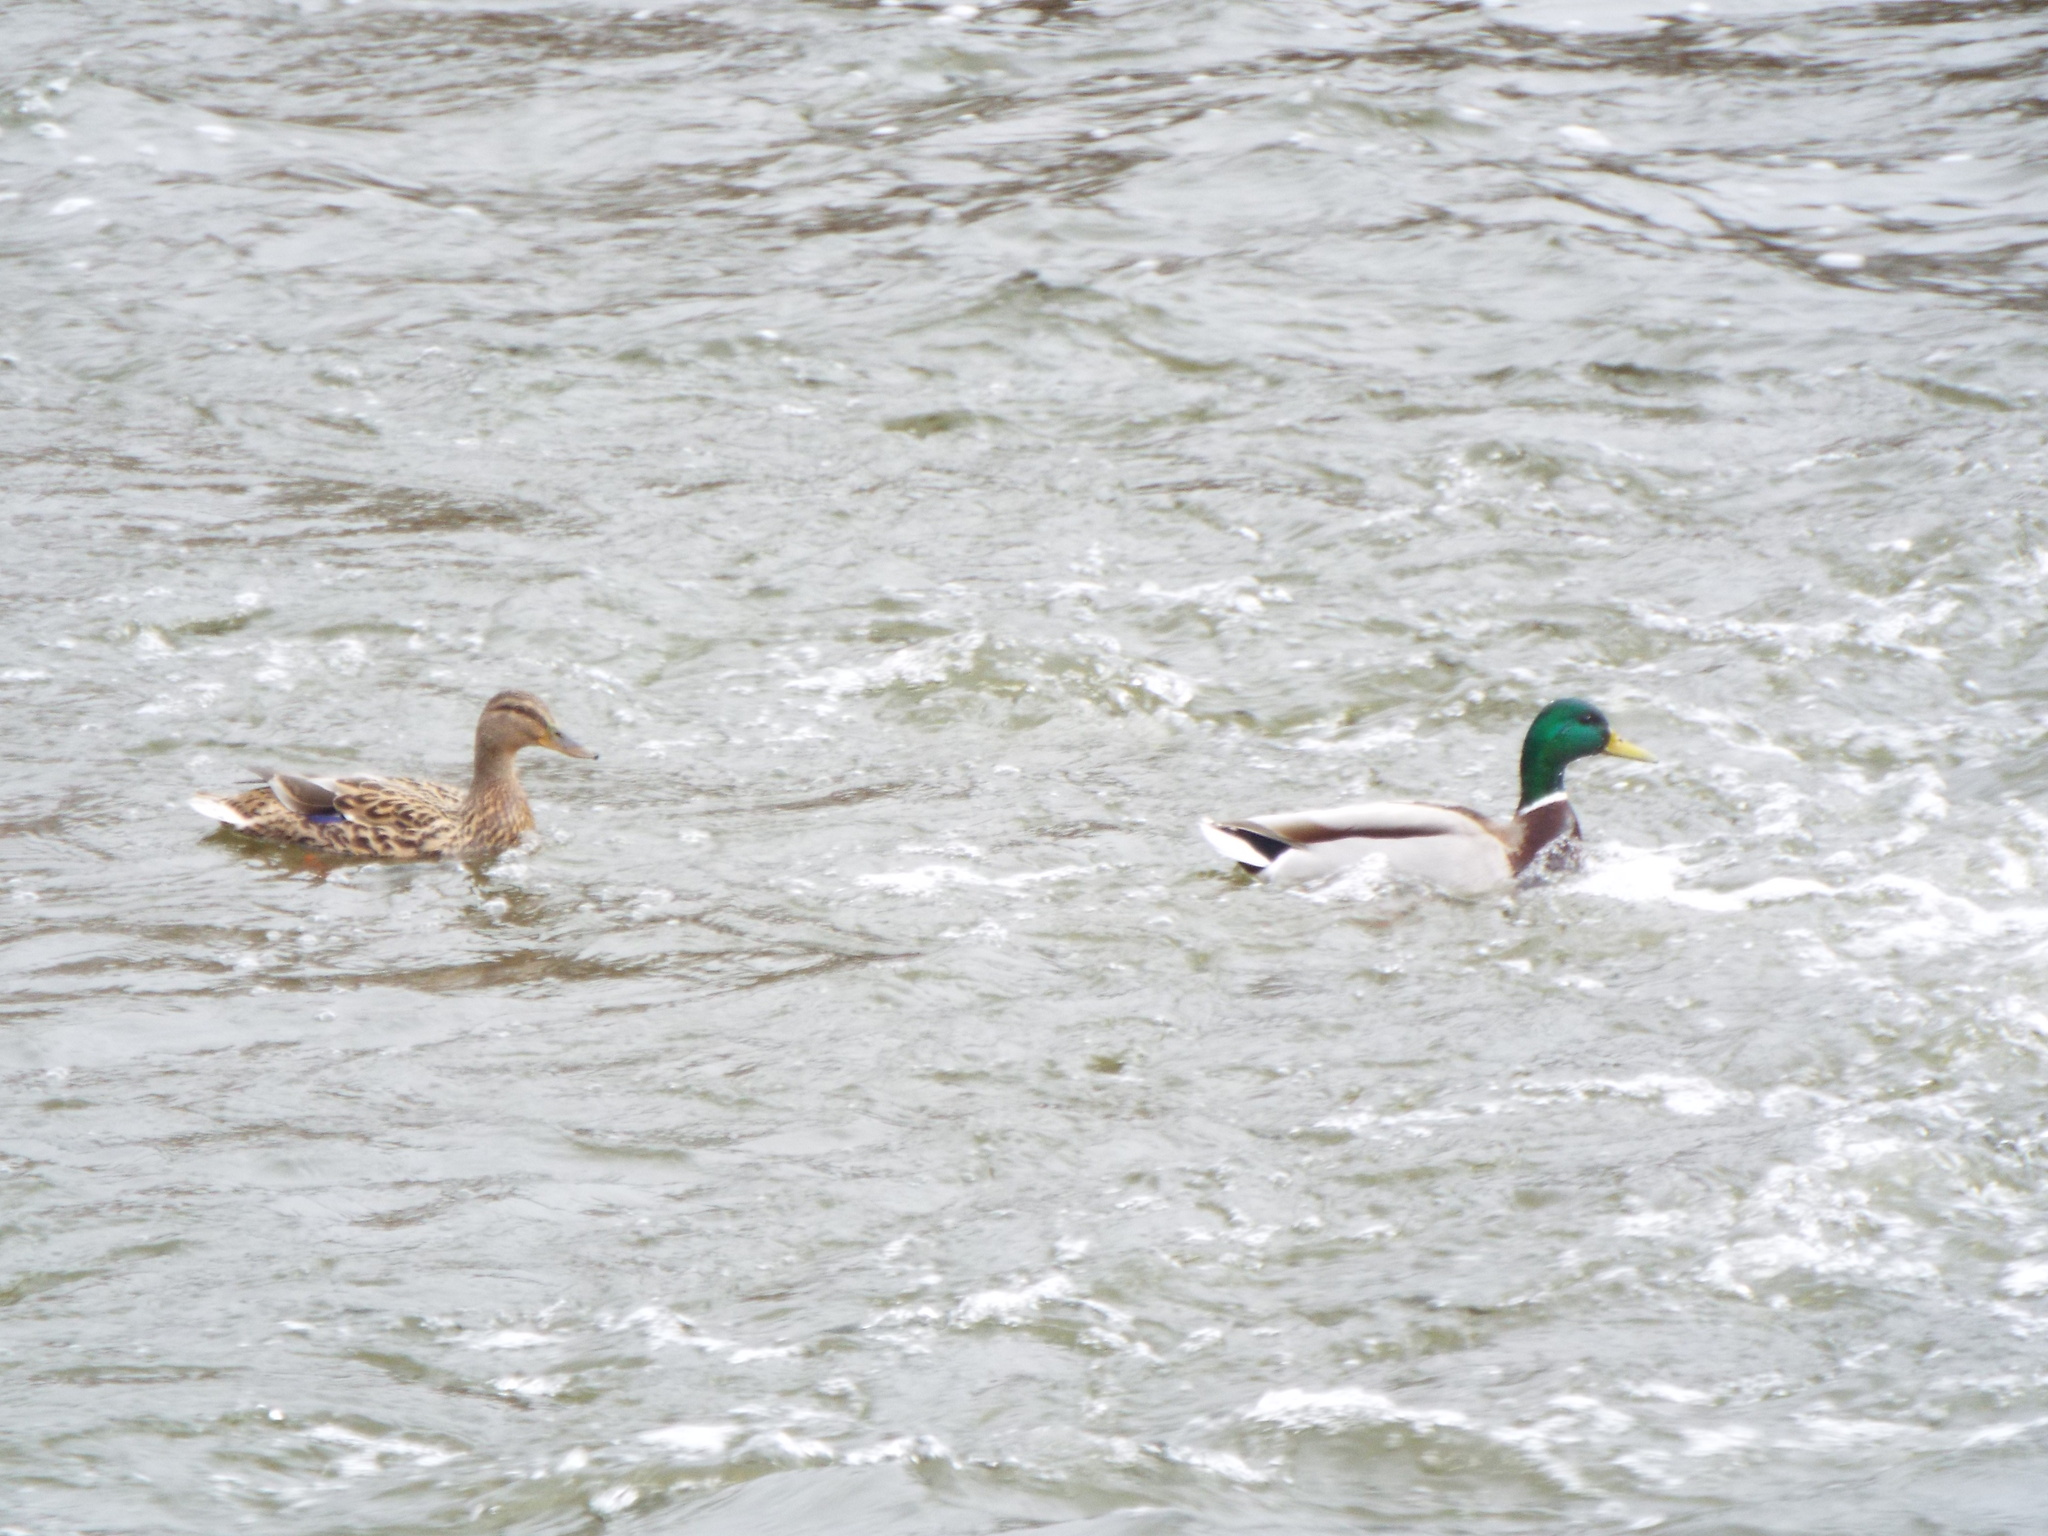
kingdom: Animalia
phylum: Chordata
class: Aves
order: Anseriformes
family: Anatidae
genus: Anas
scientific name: Anas platyrhynchos
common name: Mallard
